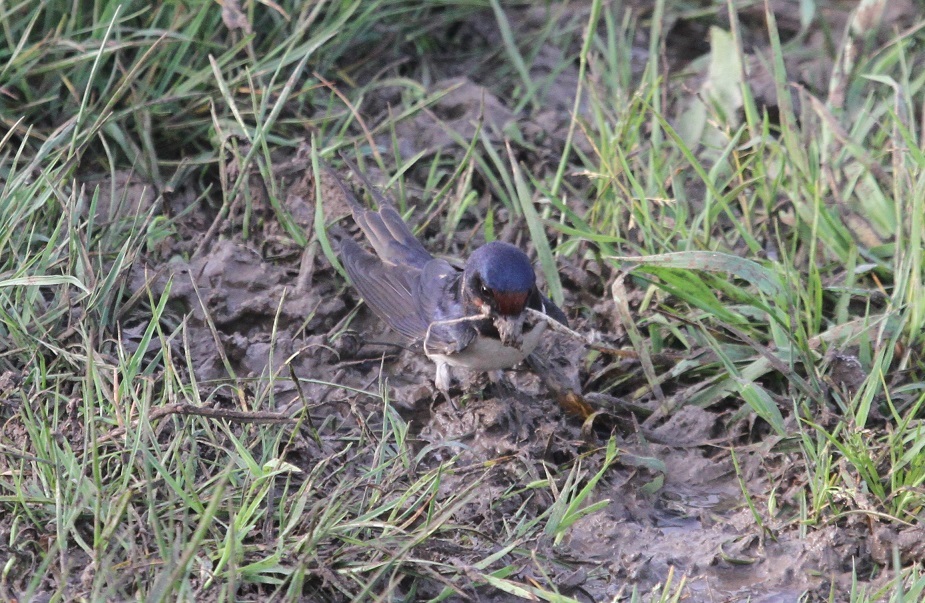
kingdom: Animalia
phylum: Chordata
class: Aves
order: Passeriformes
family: Hirundinidae
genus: Hirundo
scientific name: Hirundo rustica
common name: Barn swallow
